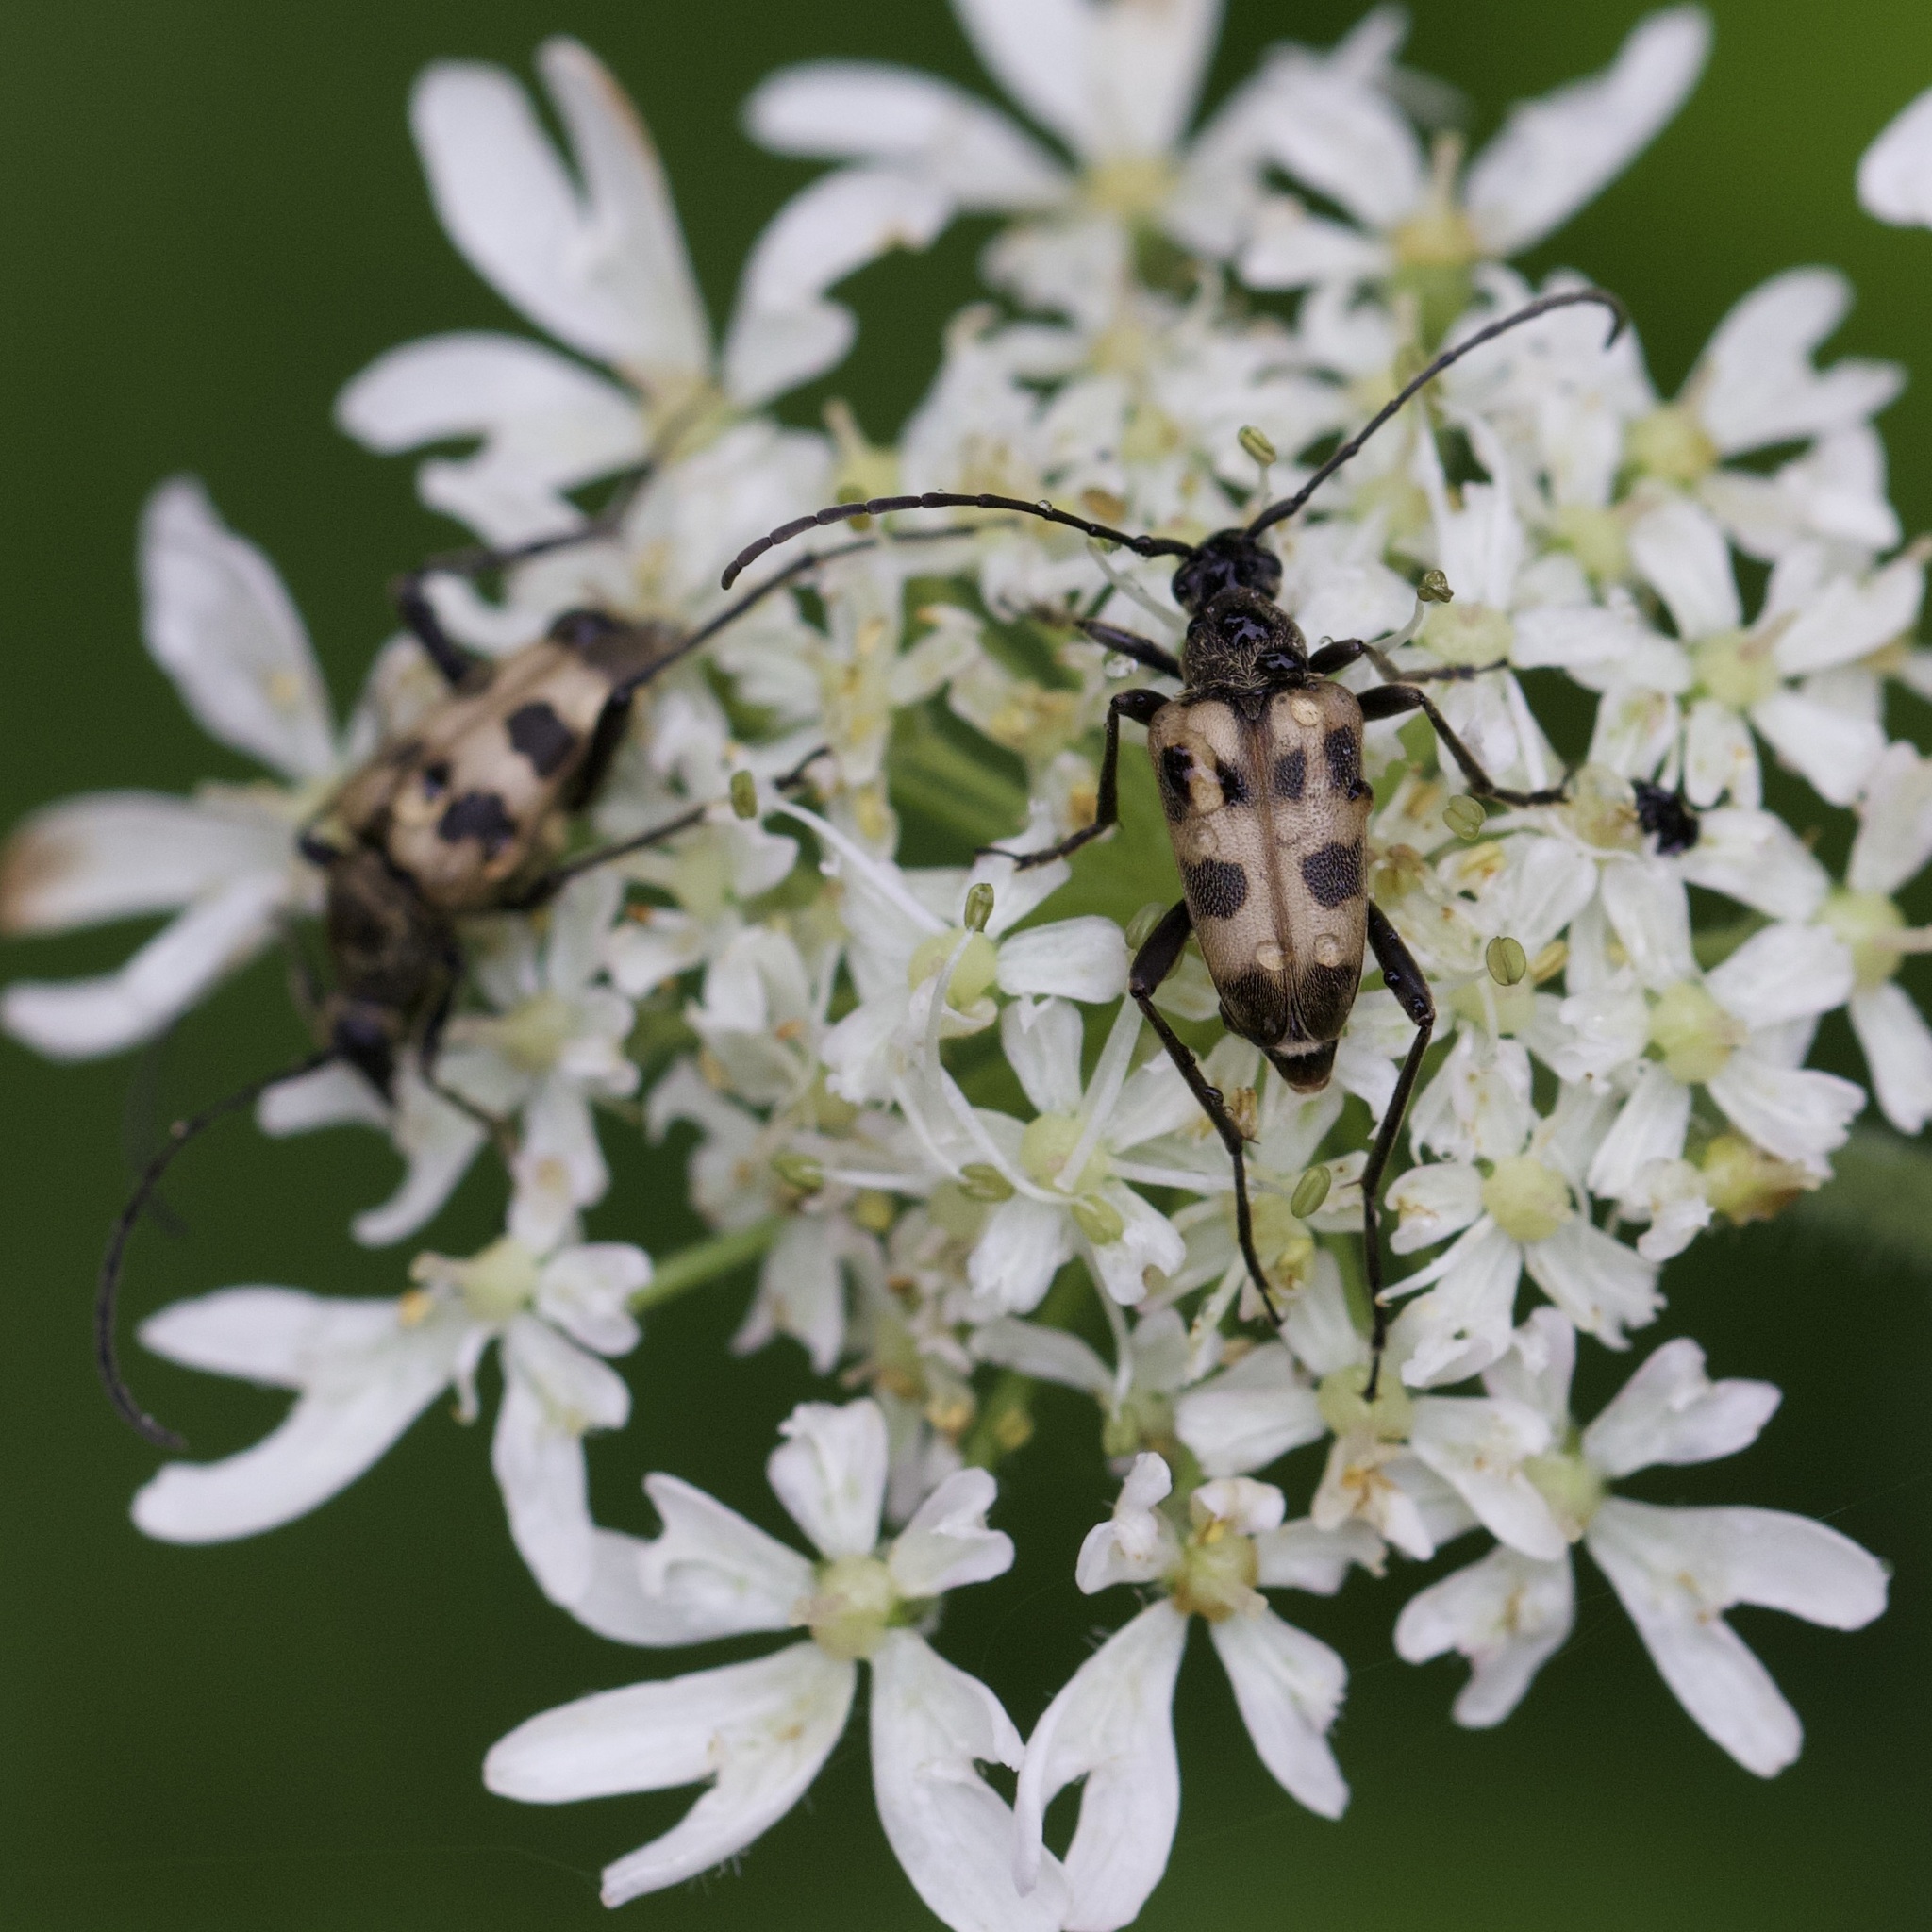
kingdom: Animalia
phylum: Arthropoda
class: Insecta
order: Coleoptera
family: Cerambycidae
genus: Pachytodes
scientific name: Pachytodes cerambyciformis
